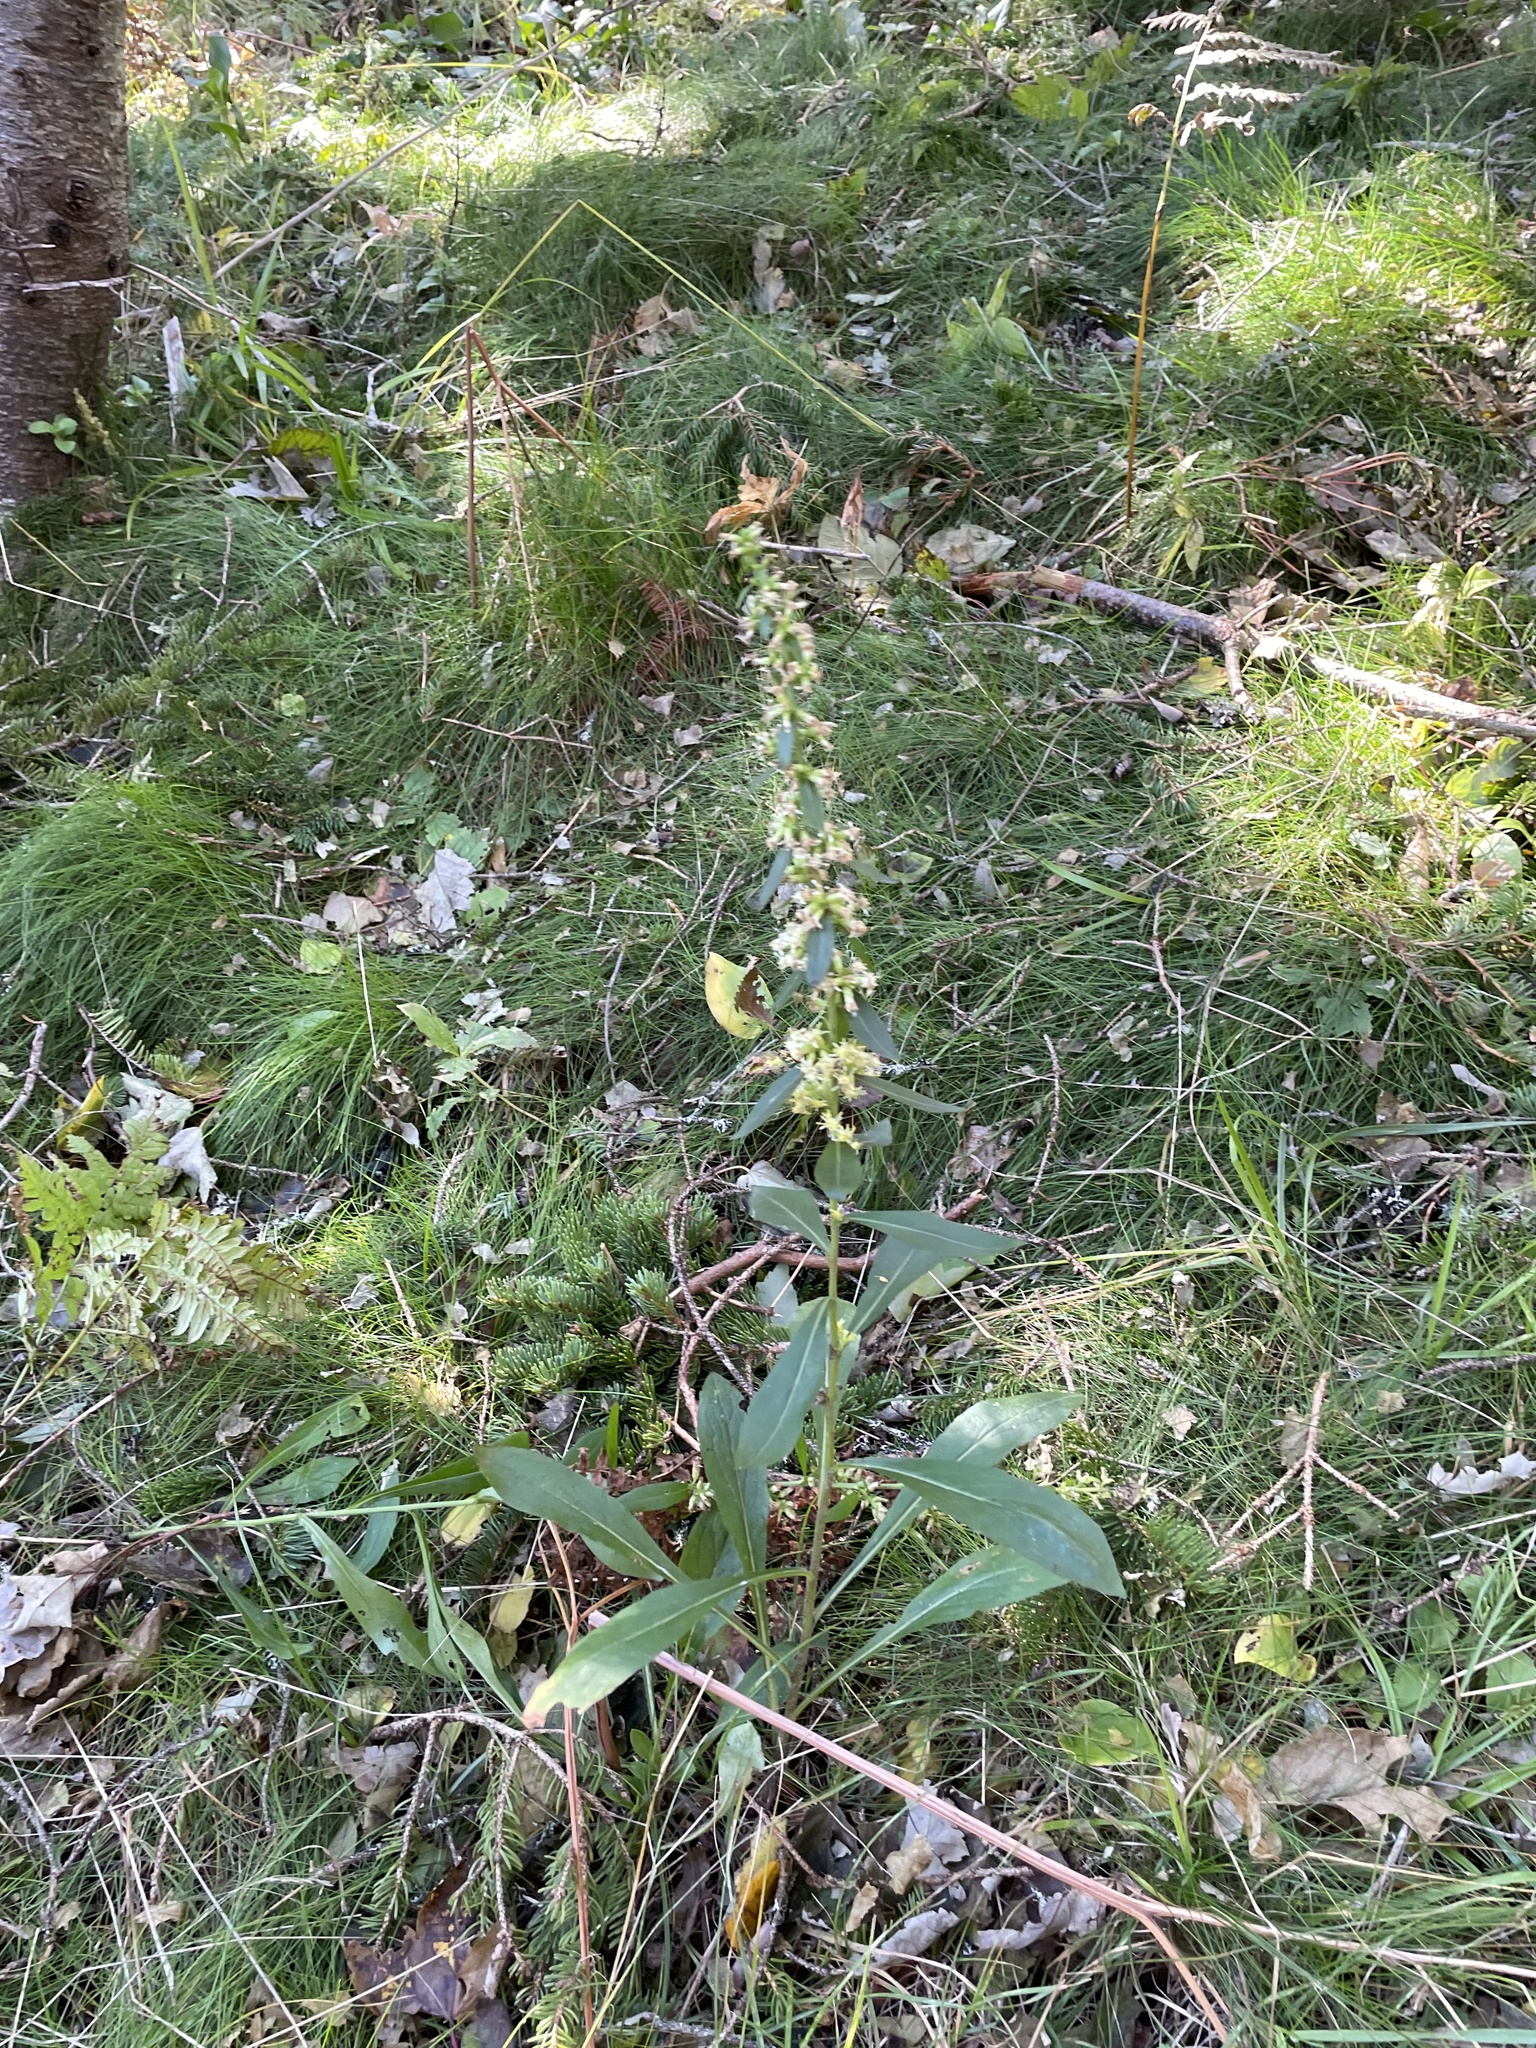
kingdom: Plantae
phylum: Tracheophyta
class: Magnoliopsida
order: Asterales
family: Asteraceae
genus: Solidago
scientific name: Solidago bicolor
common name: Silverrod
